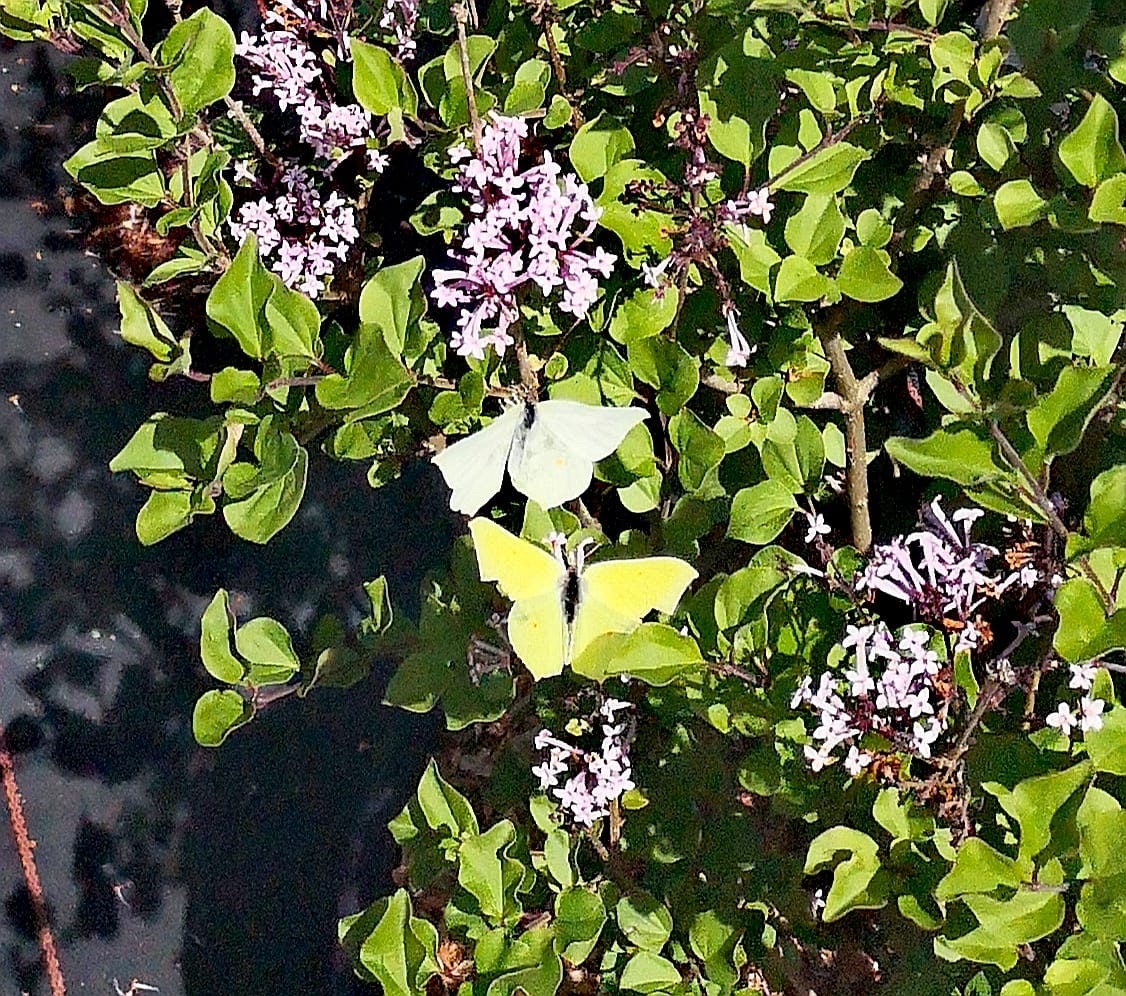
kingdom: Animalia
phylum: Arthropoda
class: Insecta
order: Lepidoptera
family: Pieridae
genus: Gonepteryx
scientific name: Gonepteryx rhamni
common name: Brimstone
